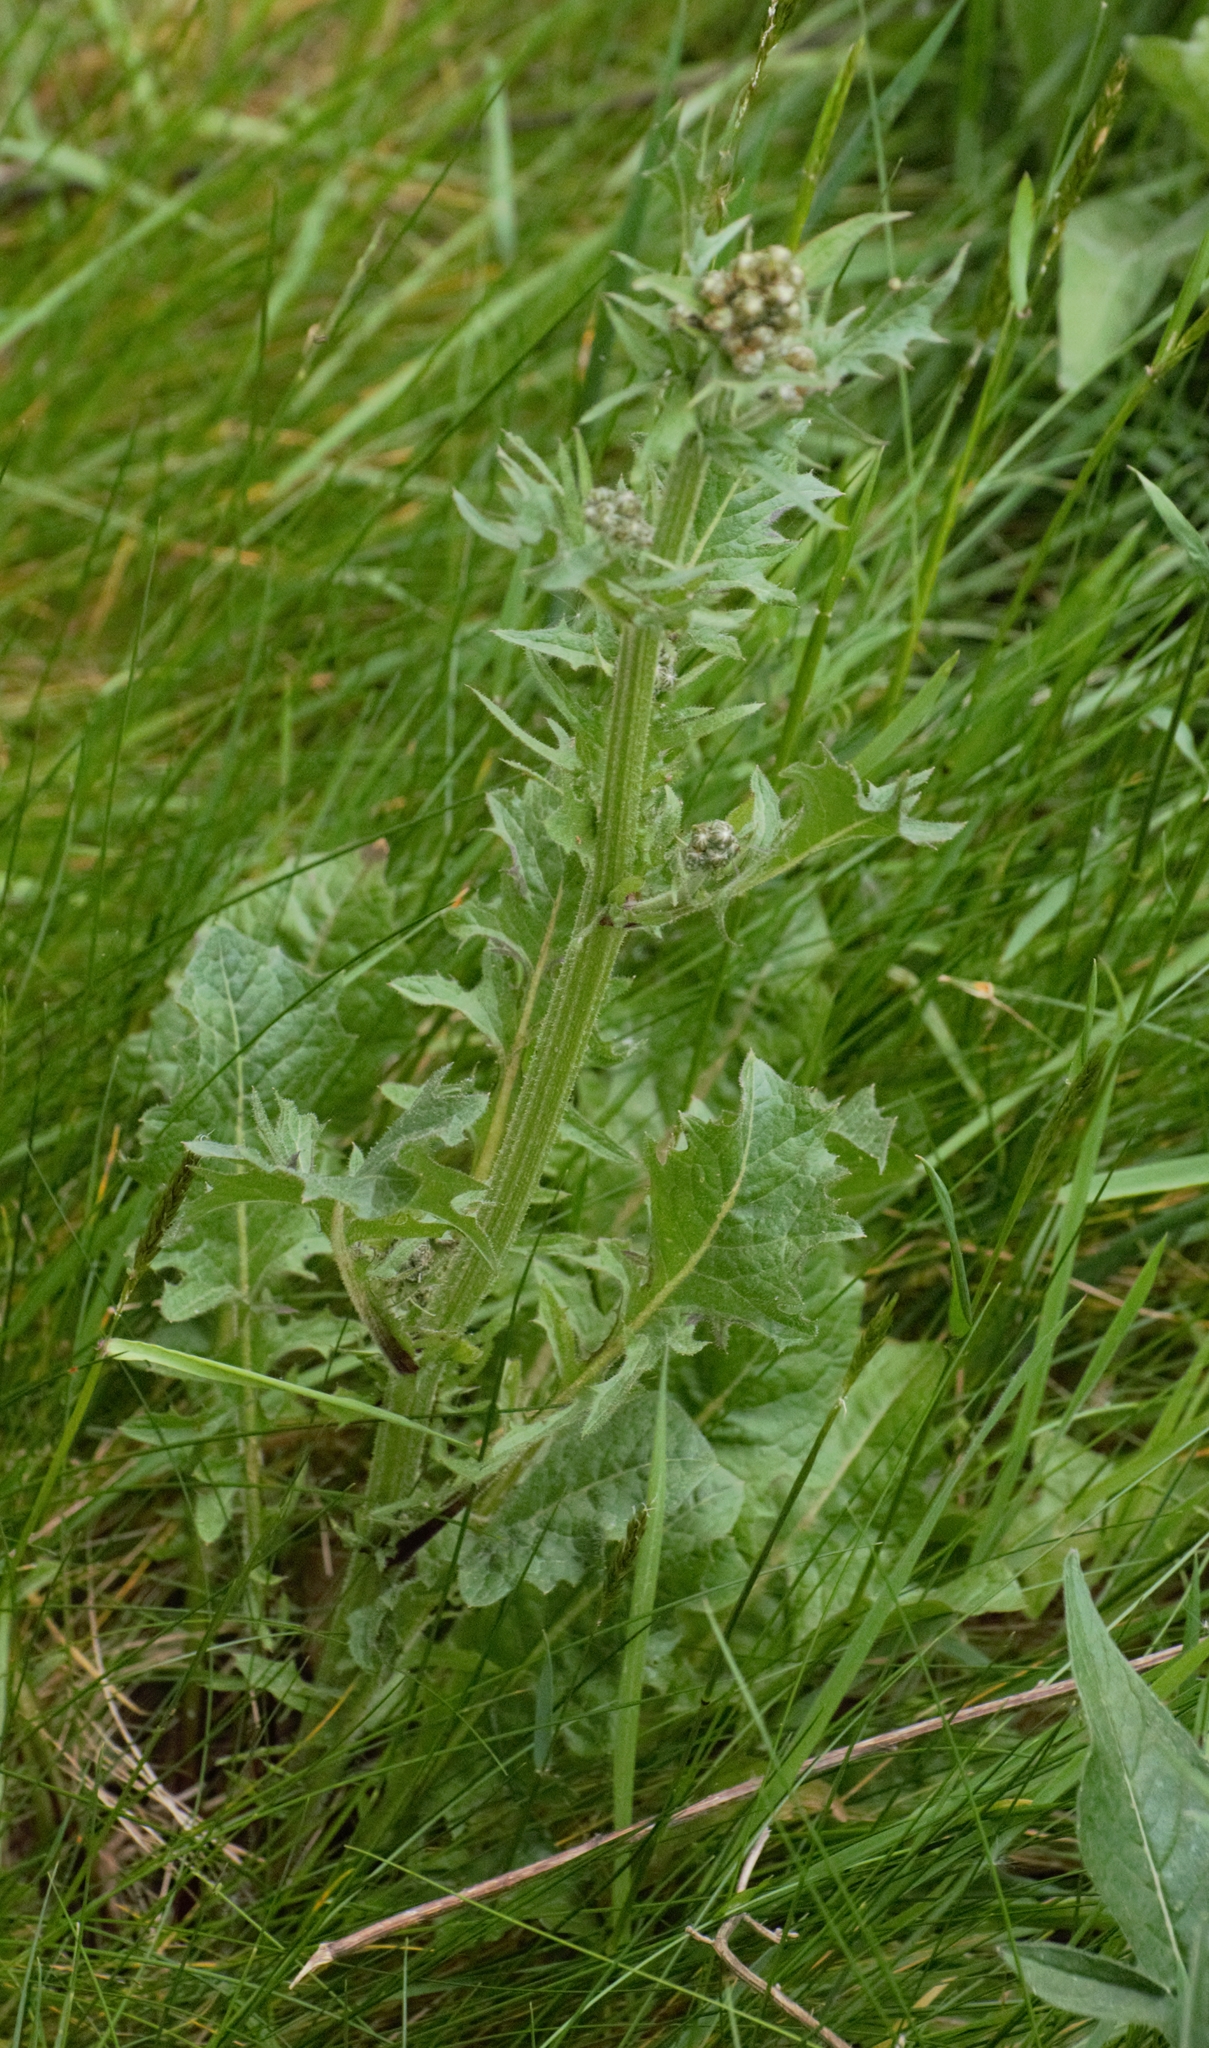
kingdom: Plantae
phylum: Tracheophyta
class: Magnoliopsida
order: Asterales
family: Asteraceae
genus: Crepis
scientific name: Crepis vesicaria
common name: Beaked hawksbeard
